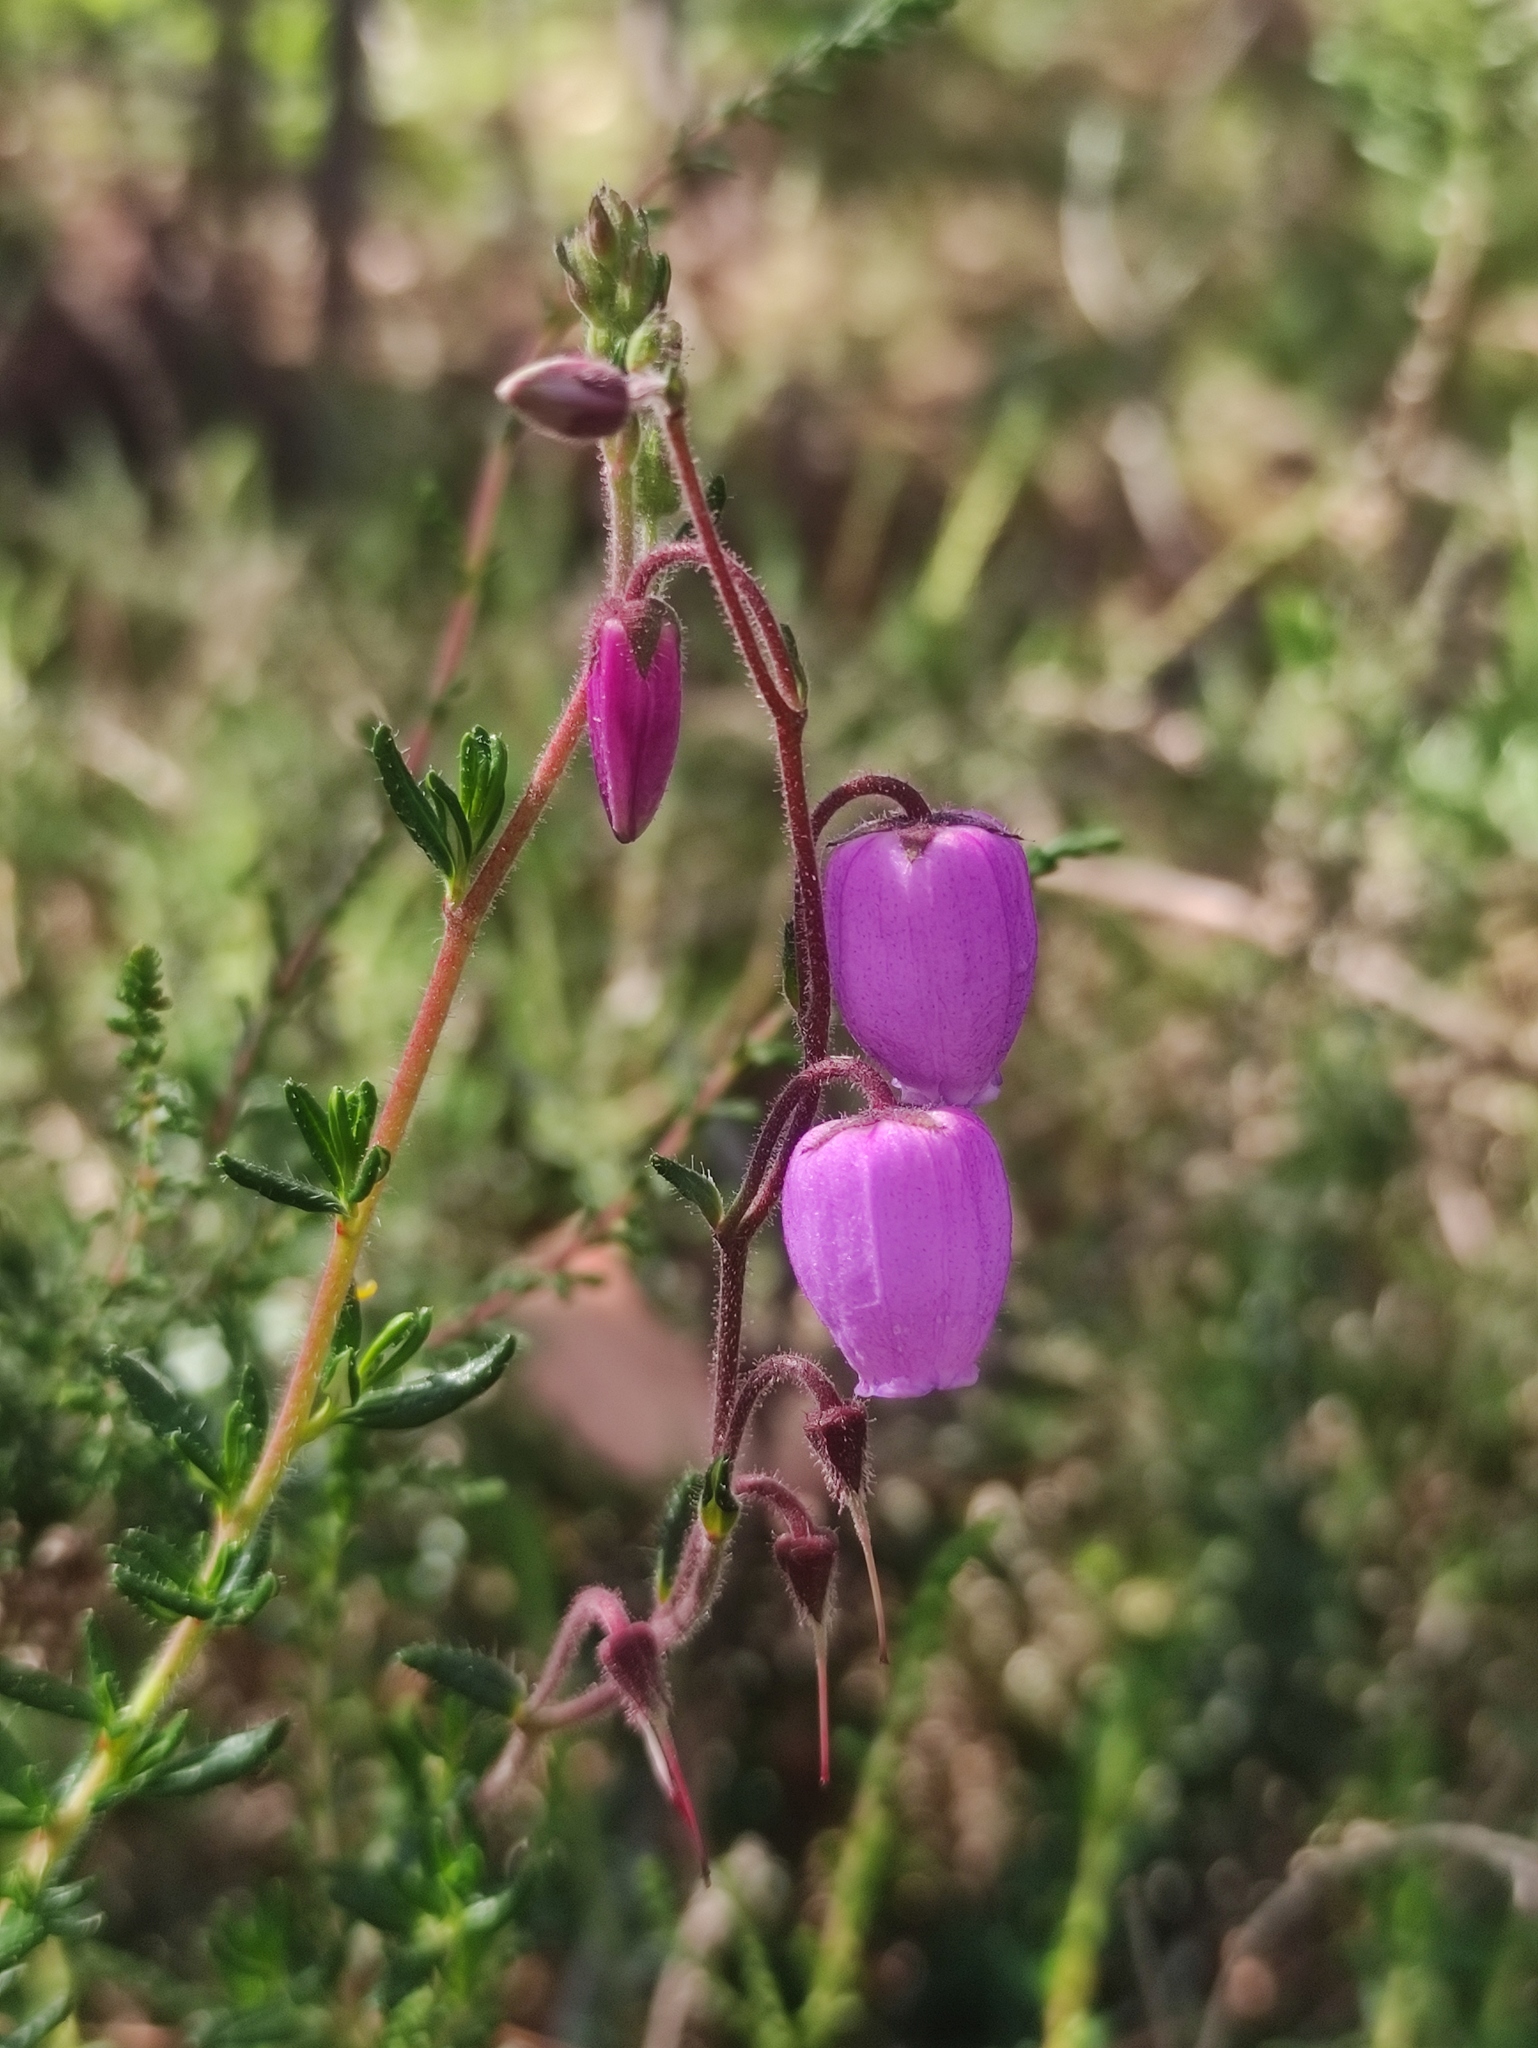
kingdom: Plantae
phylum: Tracheophyta
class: Magnoliopsida
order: Ericales
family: Ericaceae
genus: Daboecia
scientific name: Daboecia cantabrica
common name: St. dabeoc's-heath
